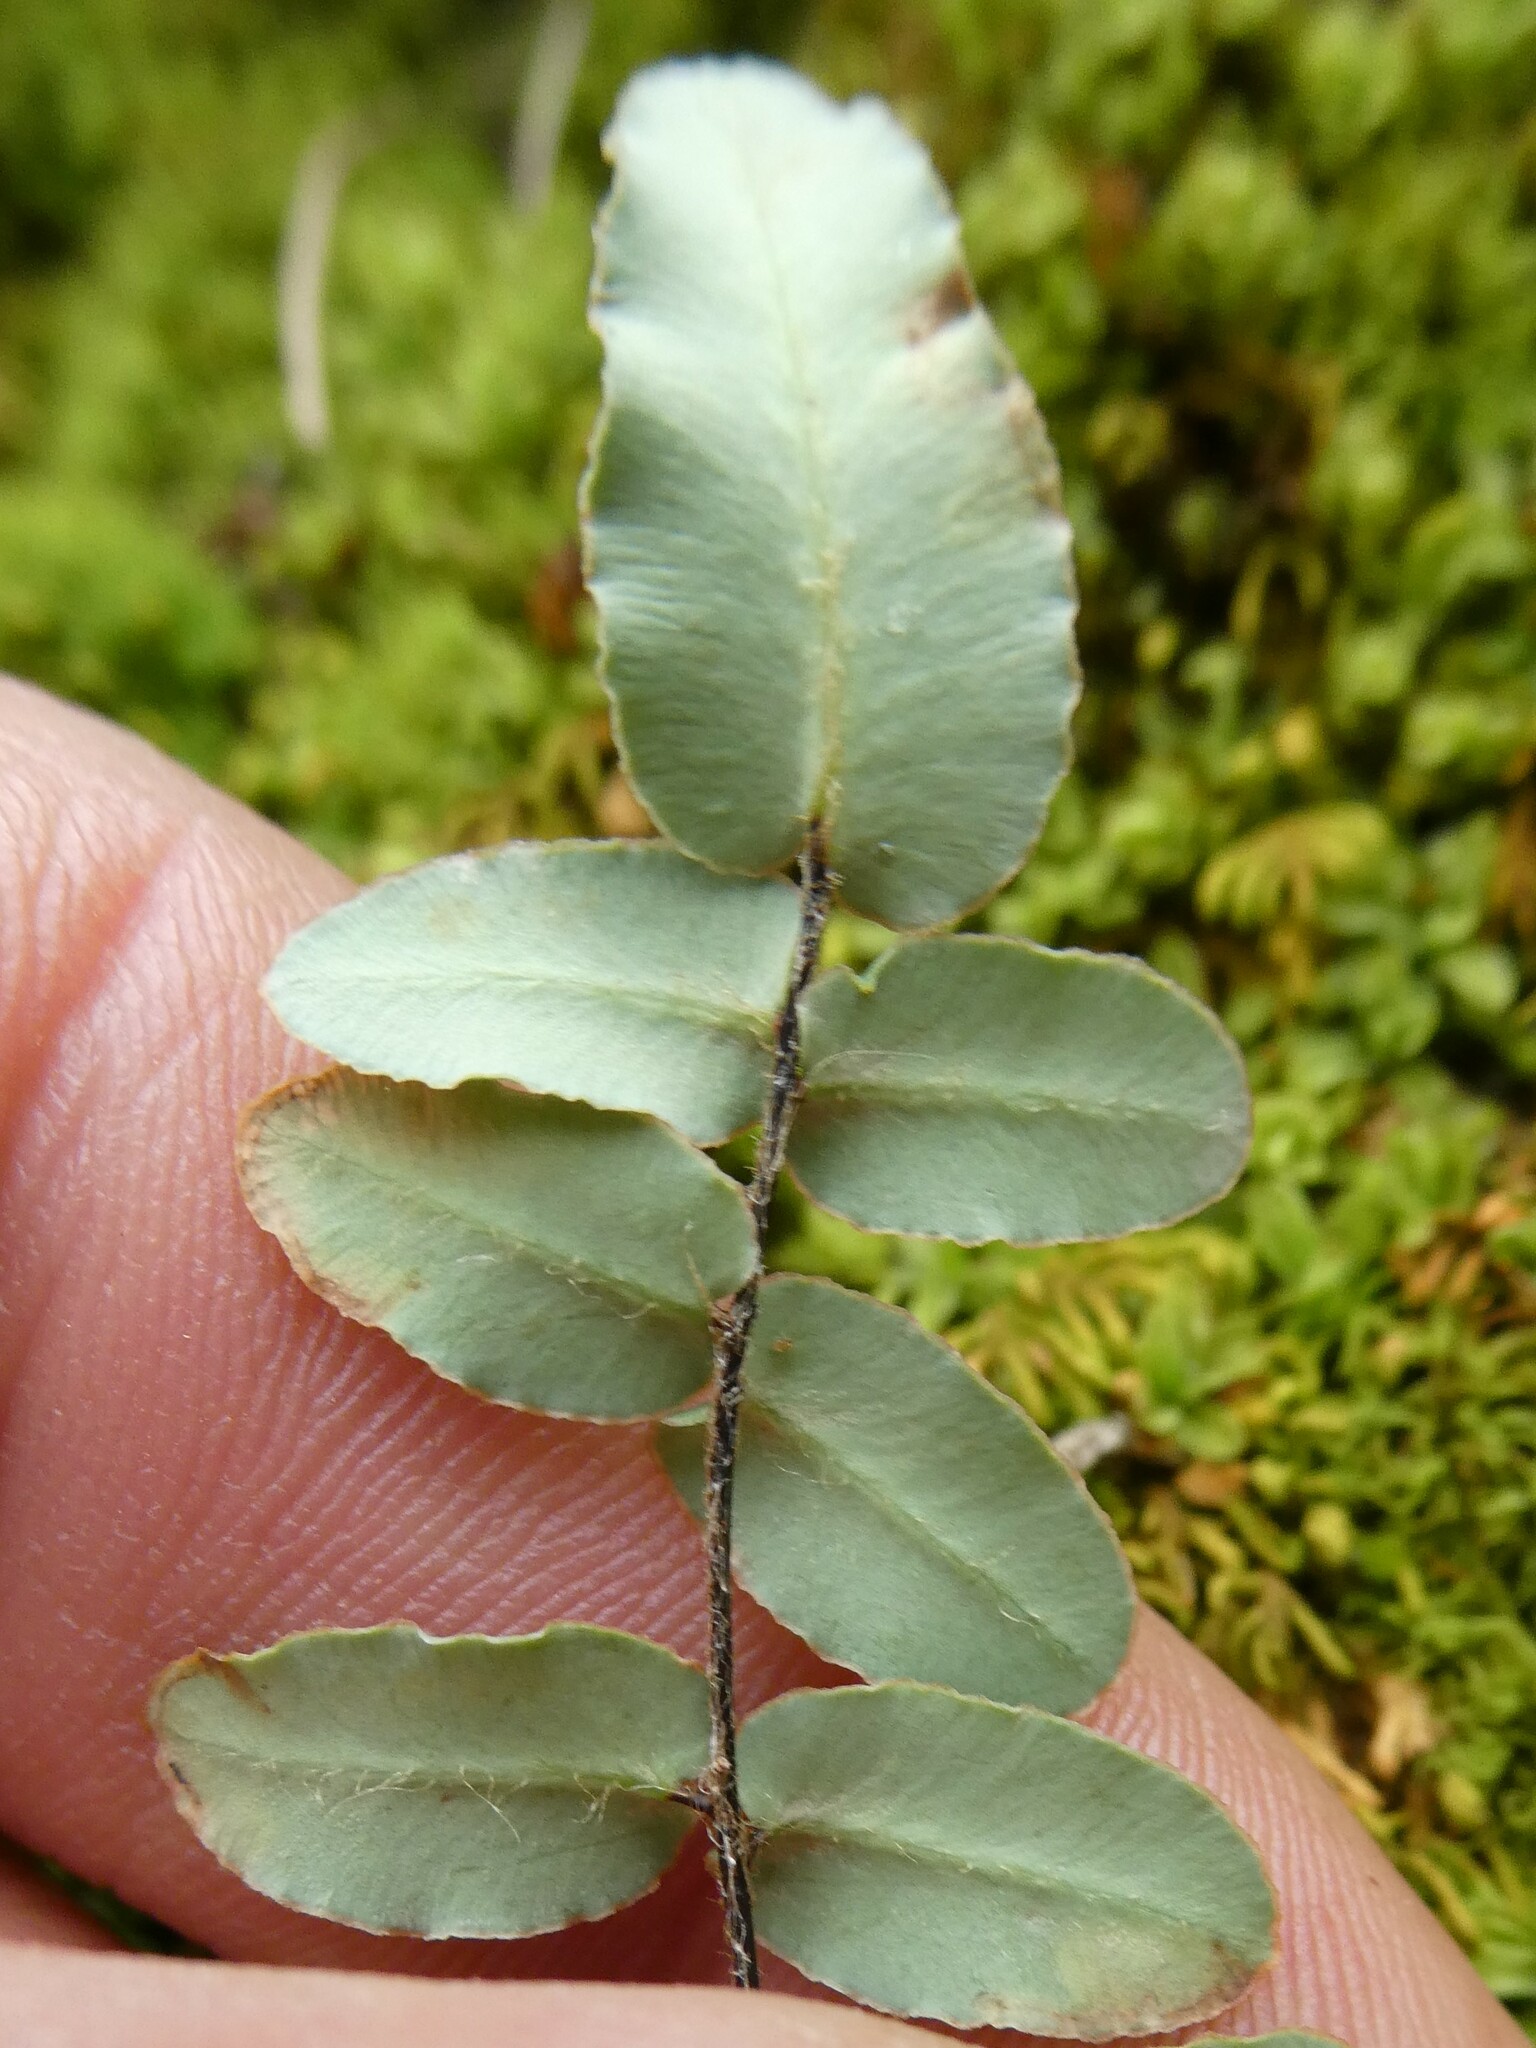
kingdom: Plantae
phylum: Tracheophyta
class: Polypodiopsida
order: Polypodiales
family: Pteridaceae
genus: Pellaea
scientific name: Pellaea atropurpurea
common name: Hairy cliffbrake
